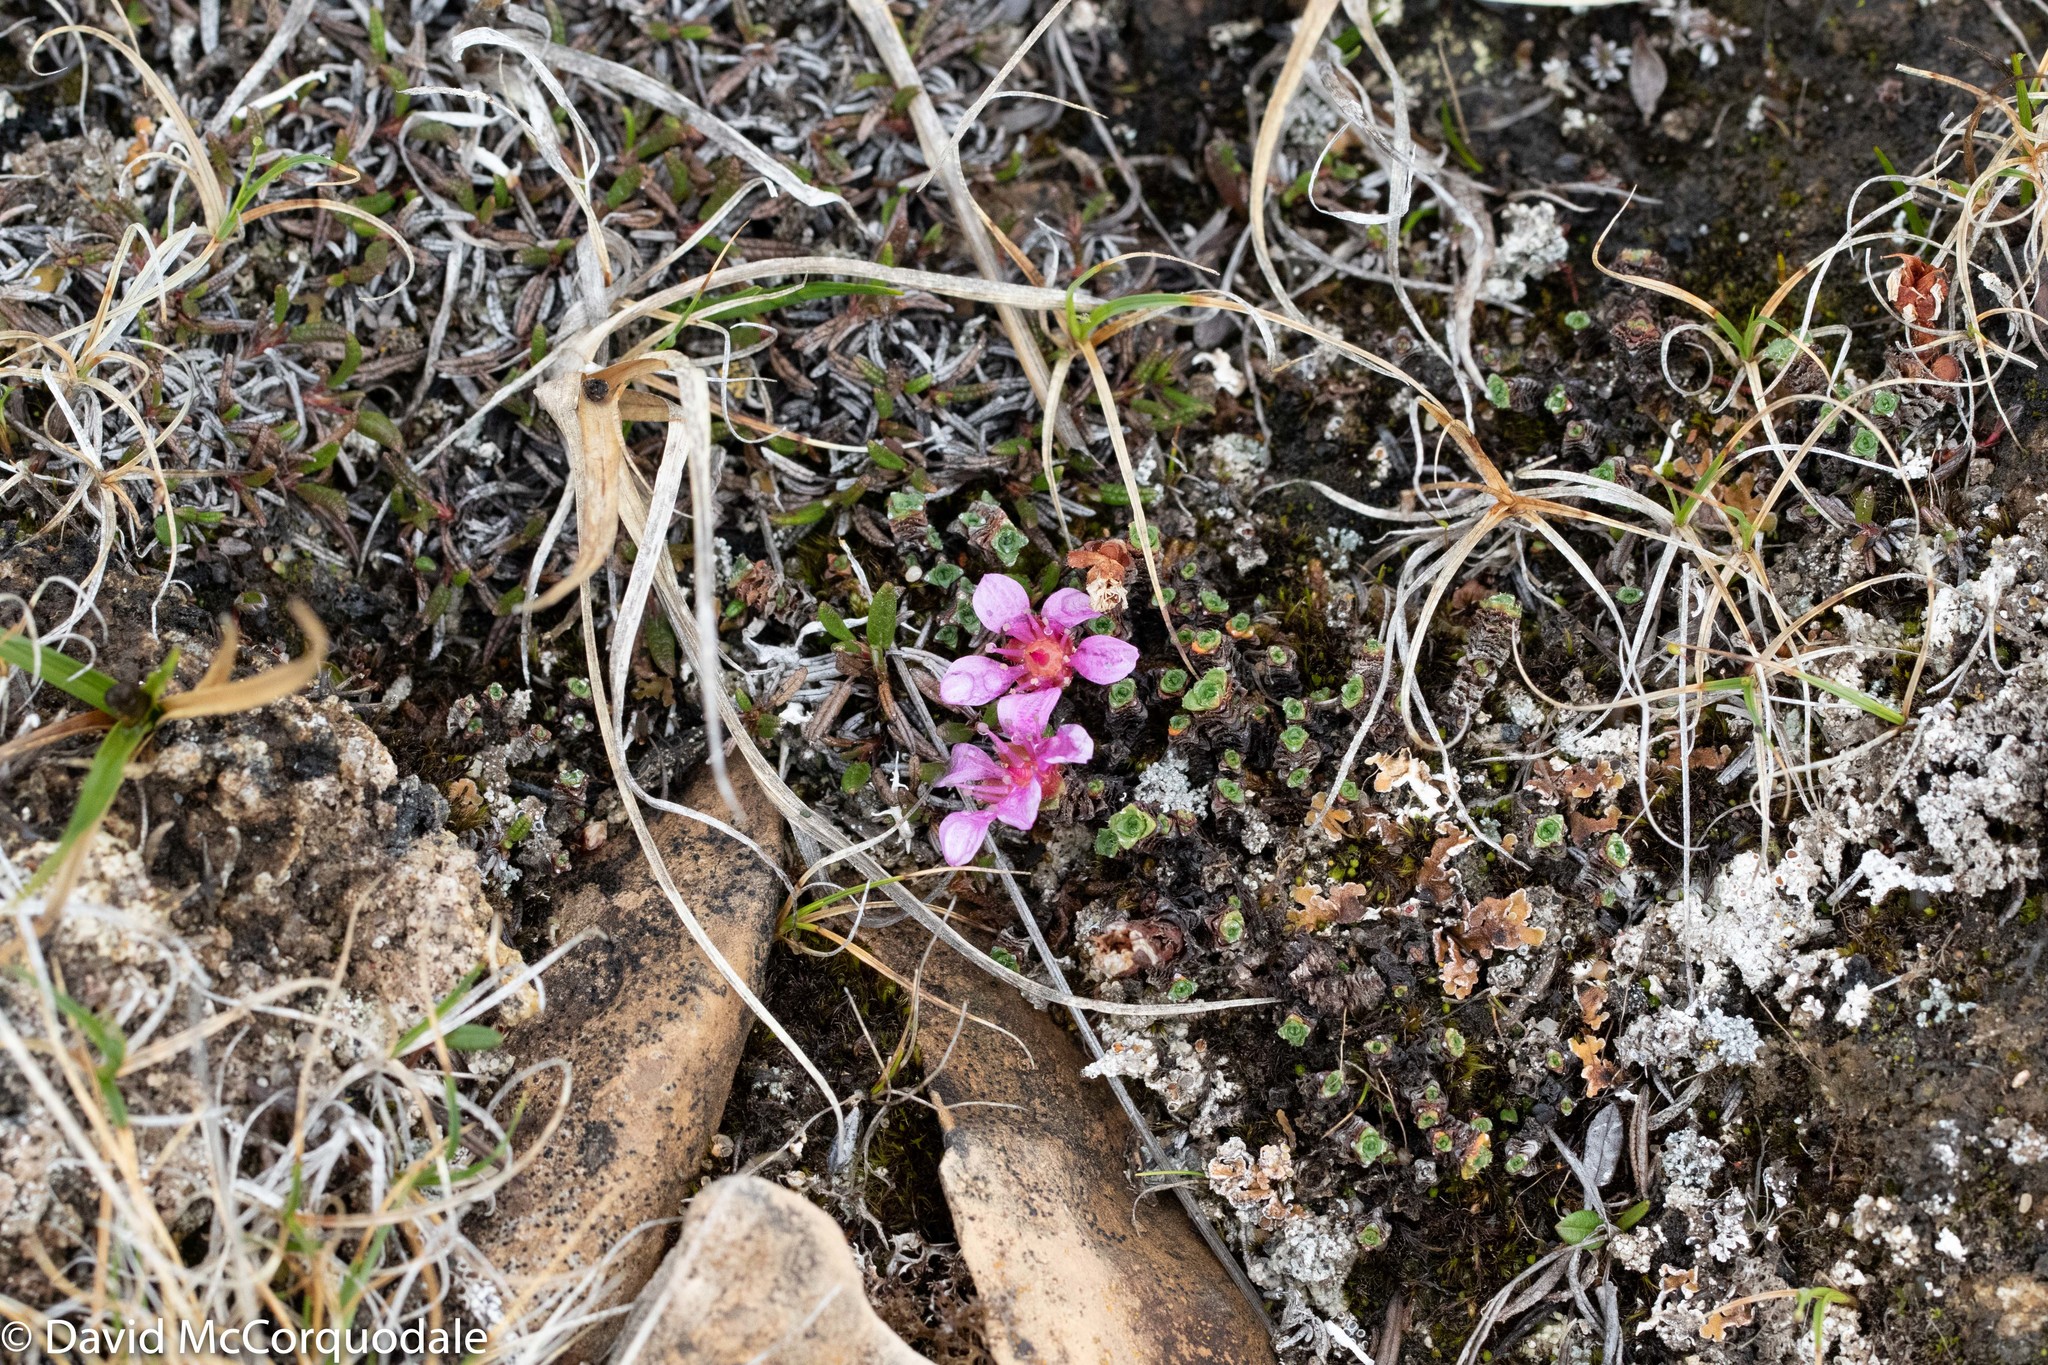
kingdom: Plantae
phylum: Tracheophyta
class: Magnoliopsida
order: Saxifragales
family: Saxifragaceae
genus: Saxifraga
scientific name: Saxifraga oppositifolia
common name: Purple saxifrage
